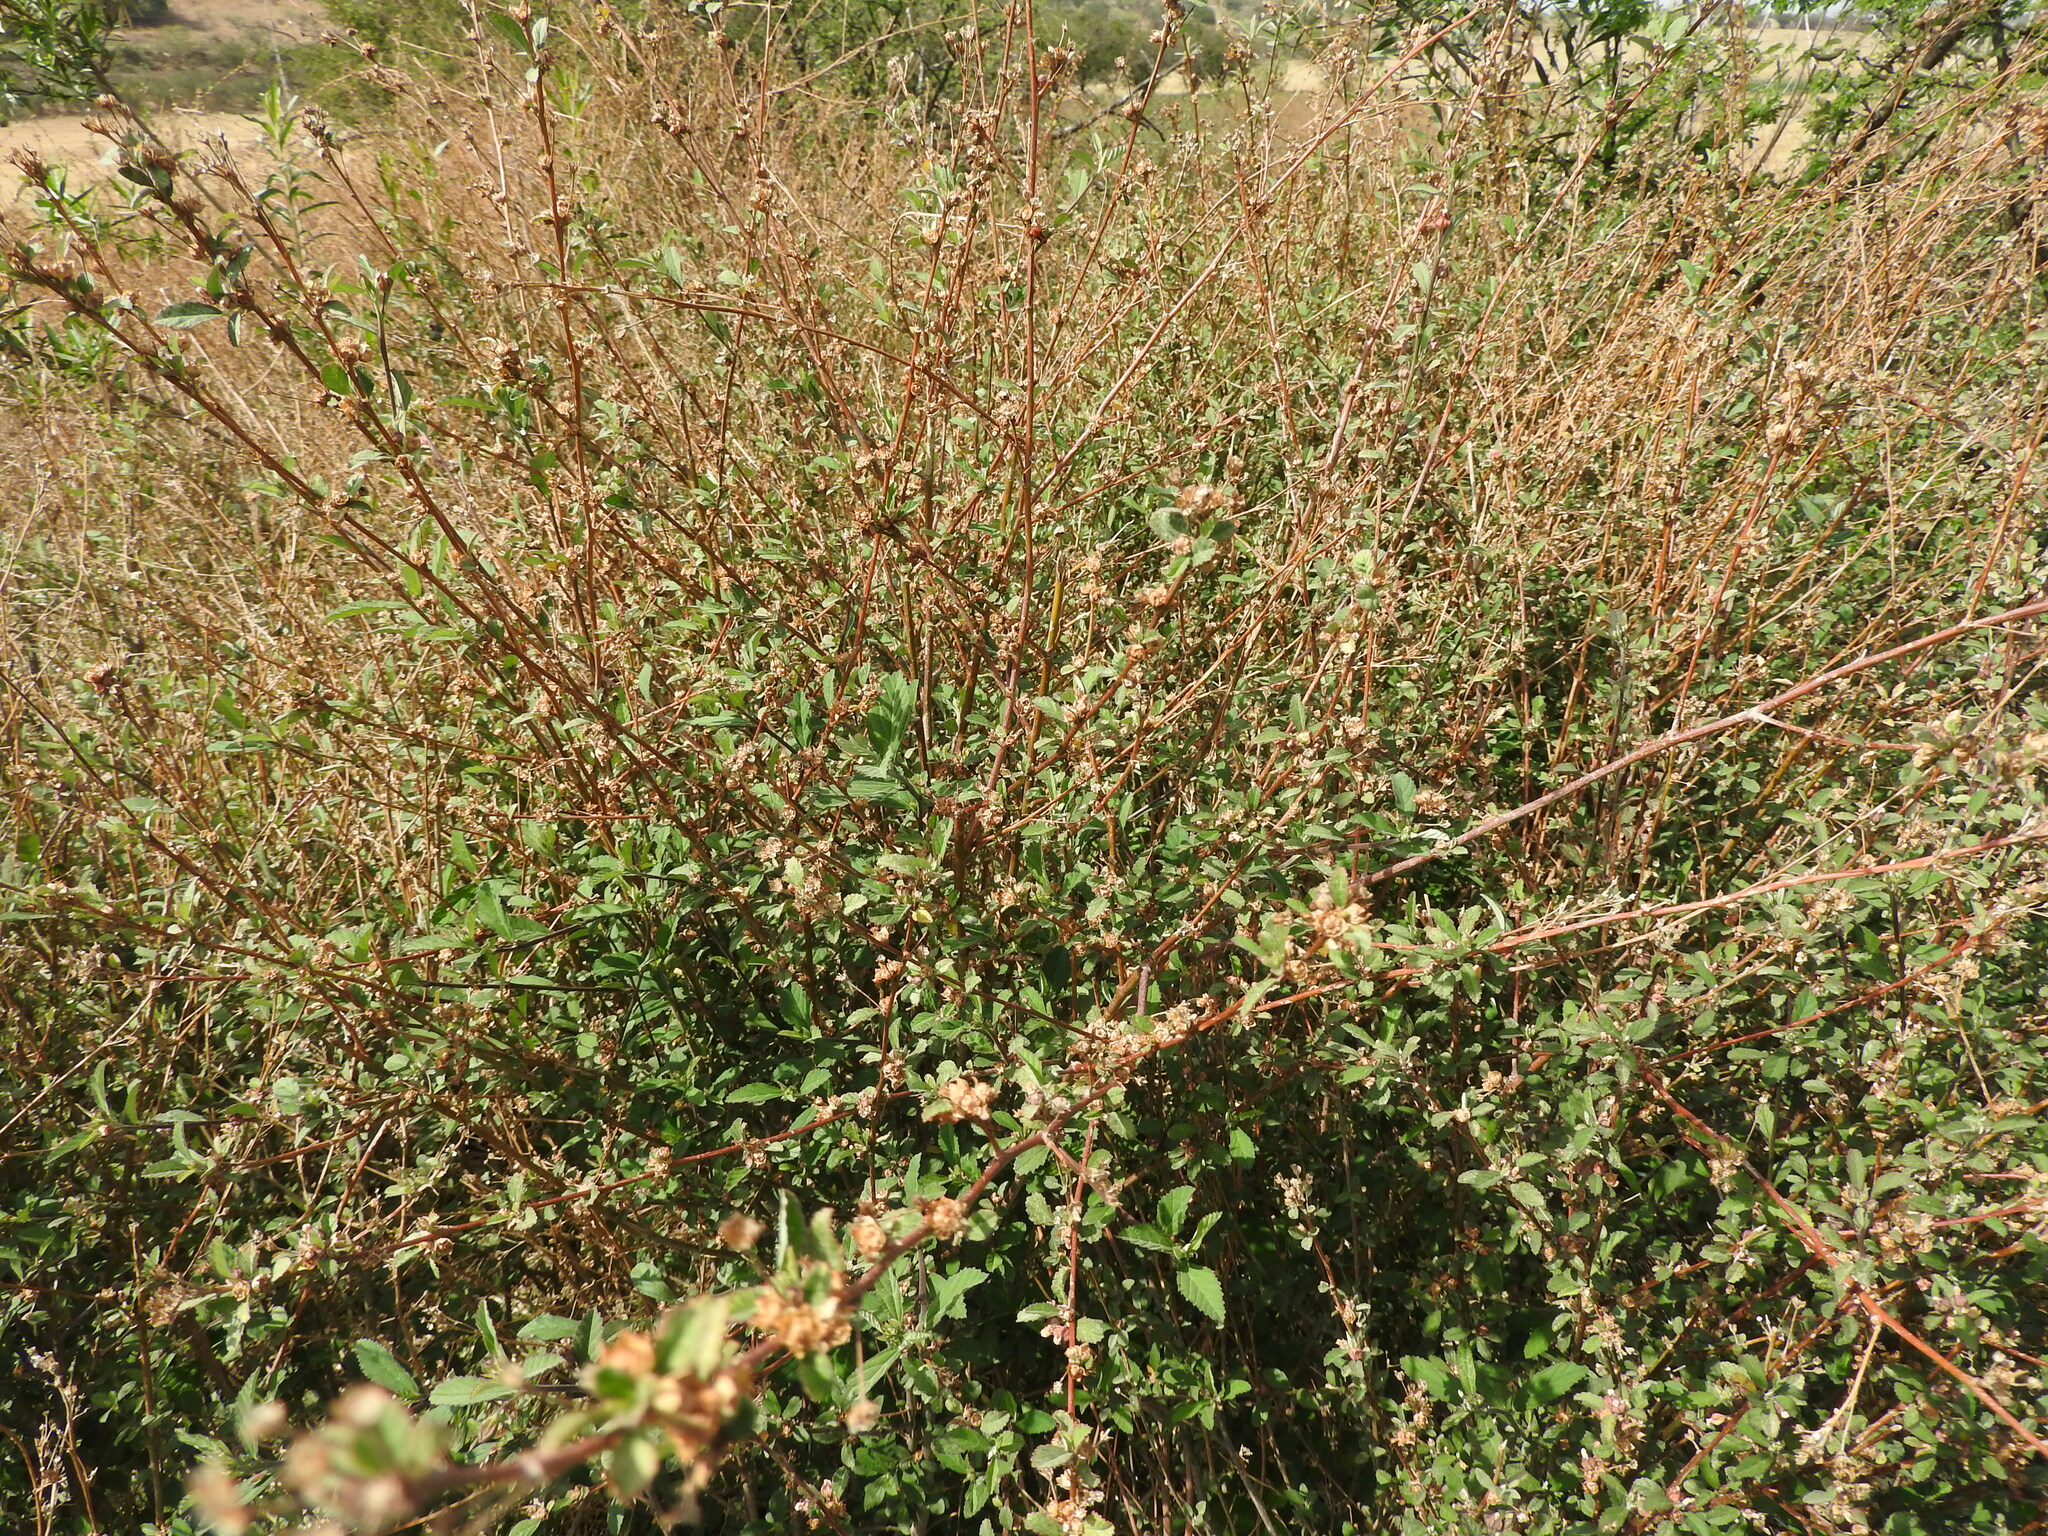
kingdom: Plantae
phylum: Tracheophyta
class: Magnoliopsida
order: Malvales
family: Malvaceae
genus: Sida
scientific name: Sida rhombifolia
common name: Queensland-hemp
